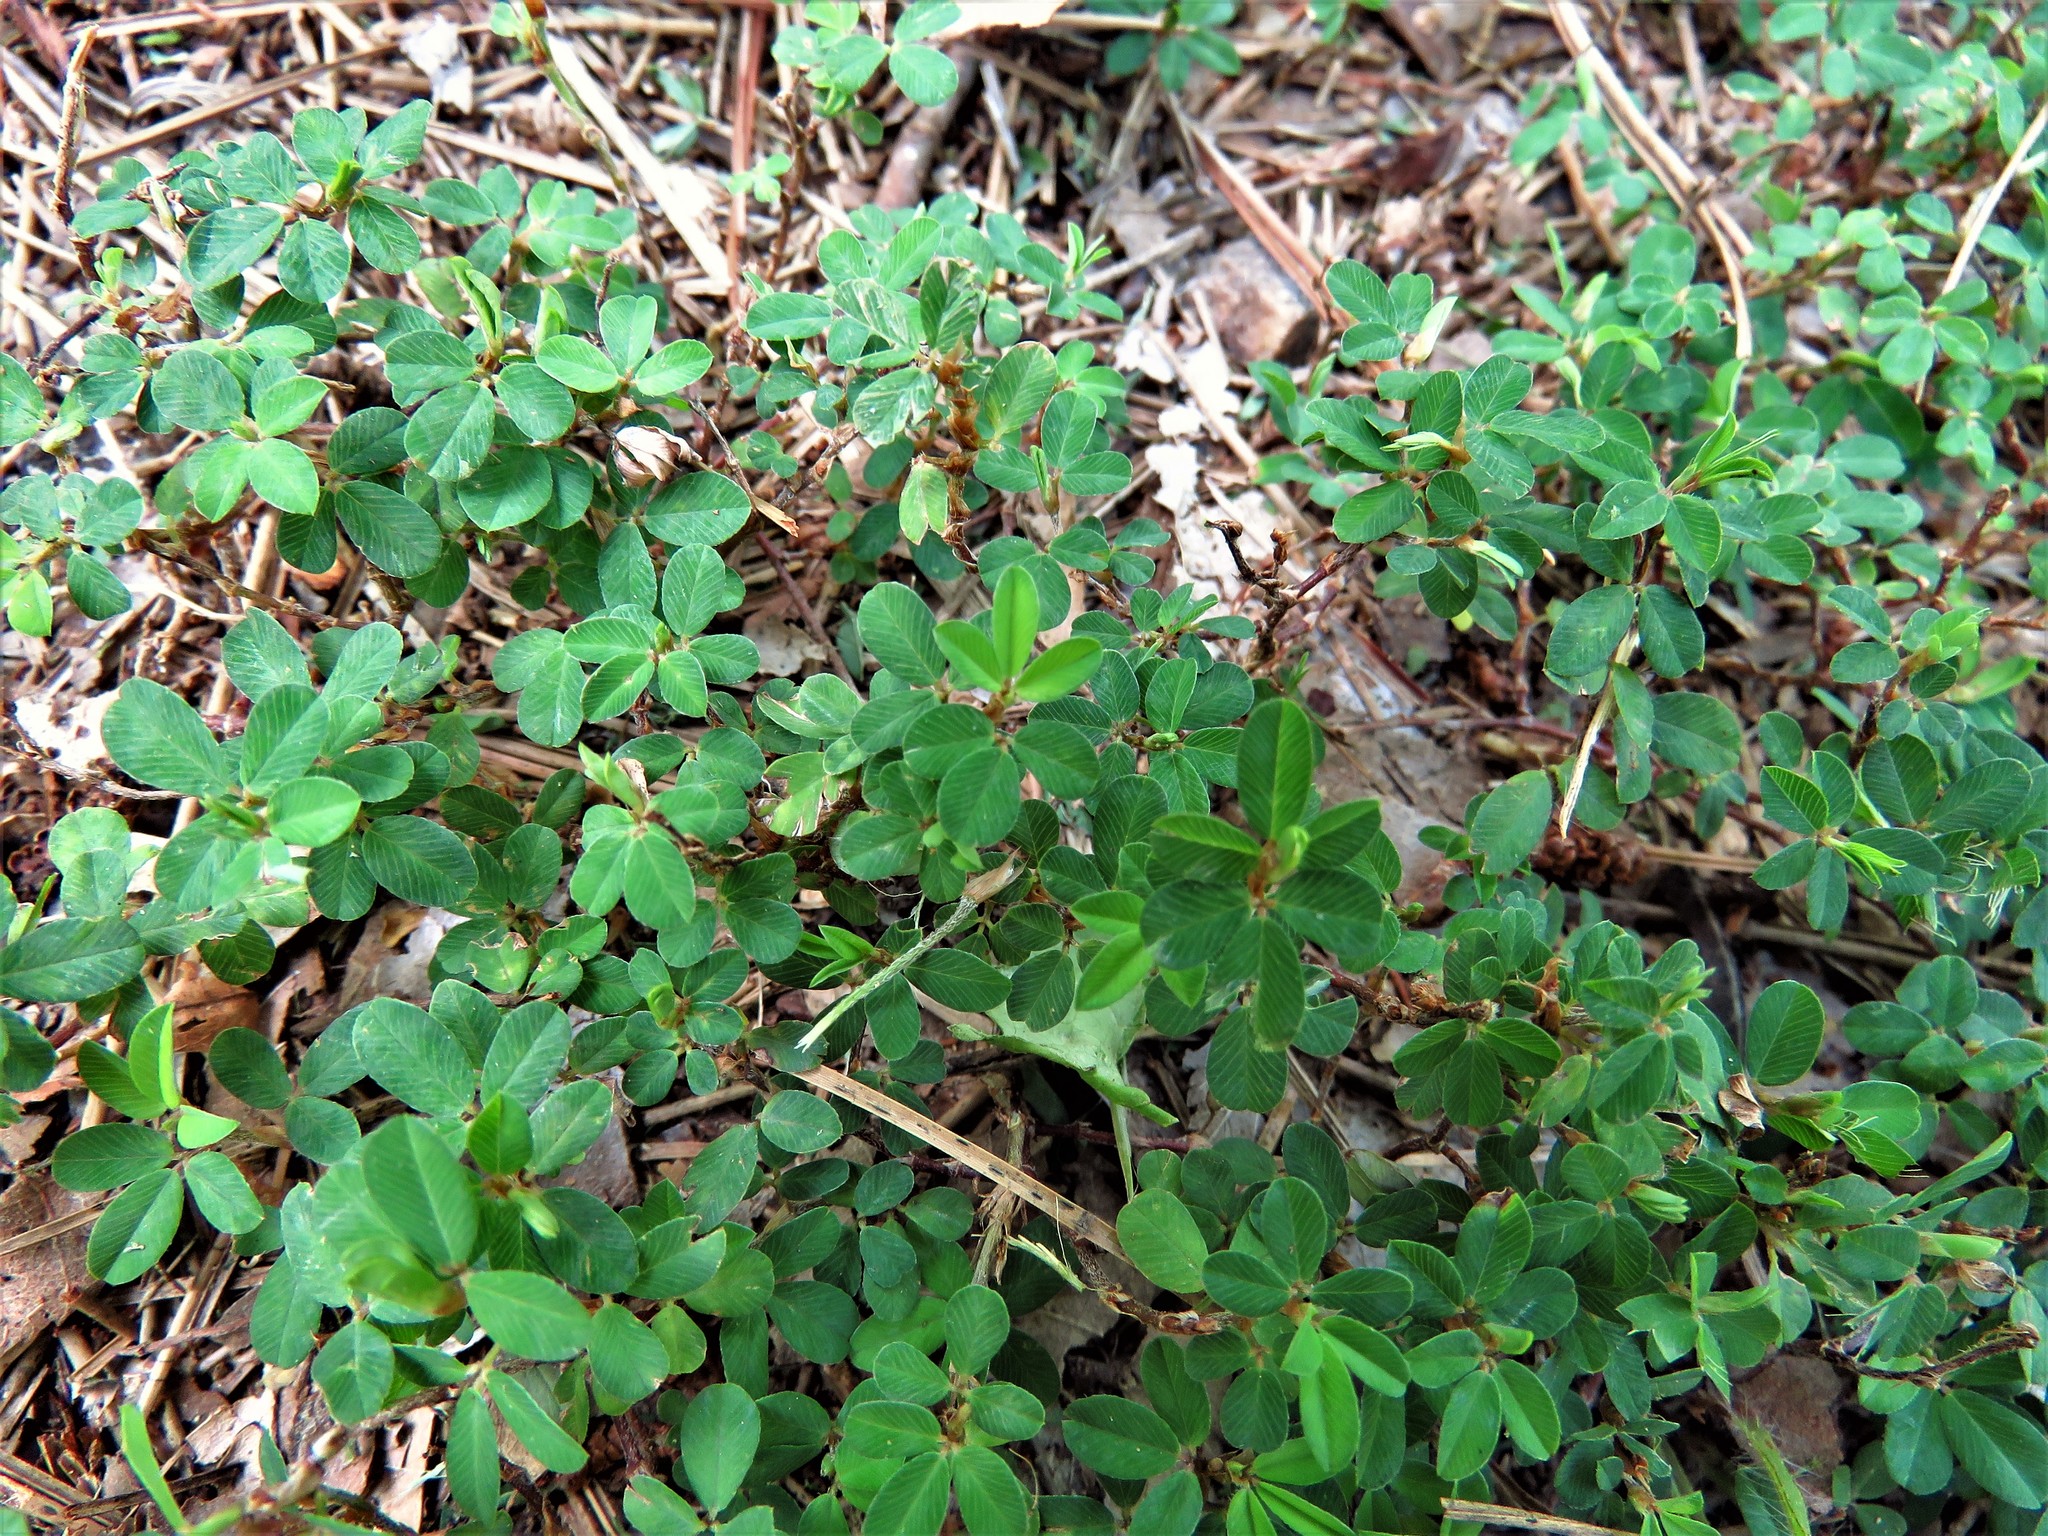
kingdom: Plantae
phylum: Tracheophyta
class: Magnoliopsida
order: Fabales
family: Fabaceae
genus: Kummerowia
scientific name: Kummerowia striata
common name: Japanese clover
